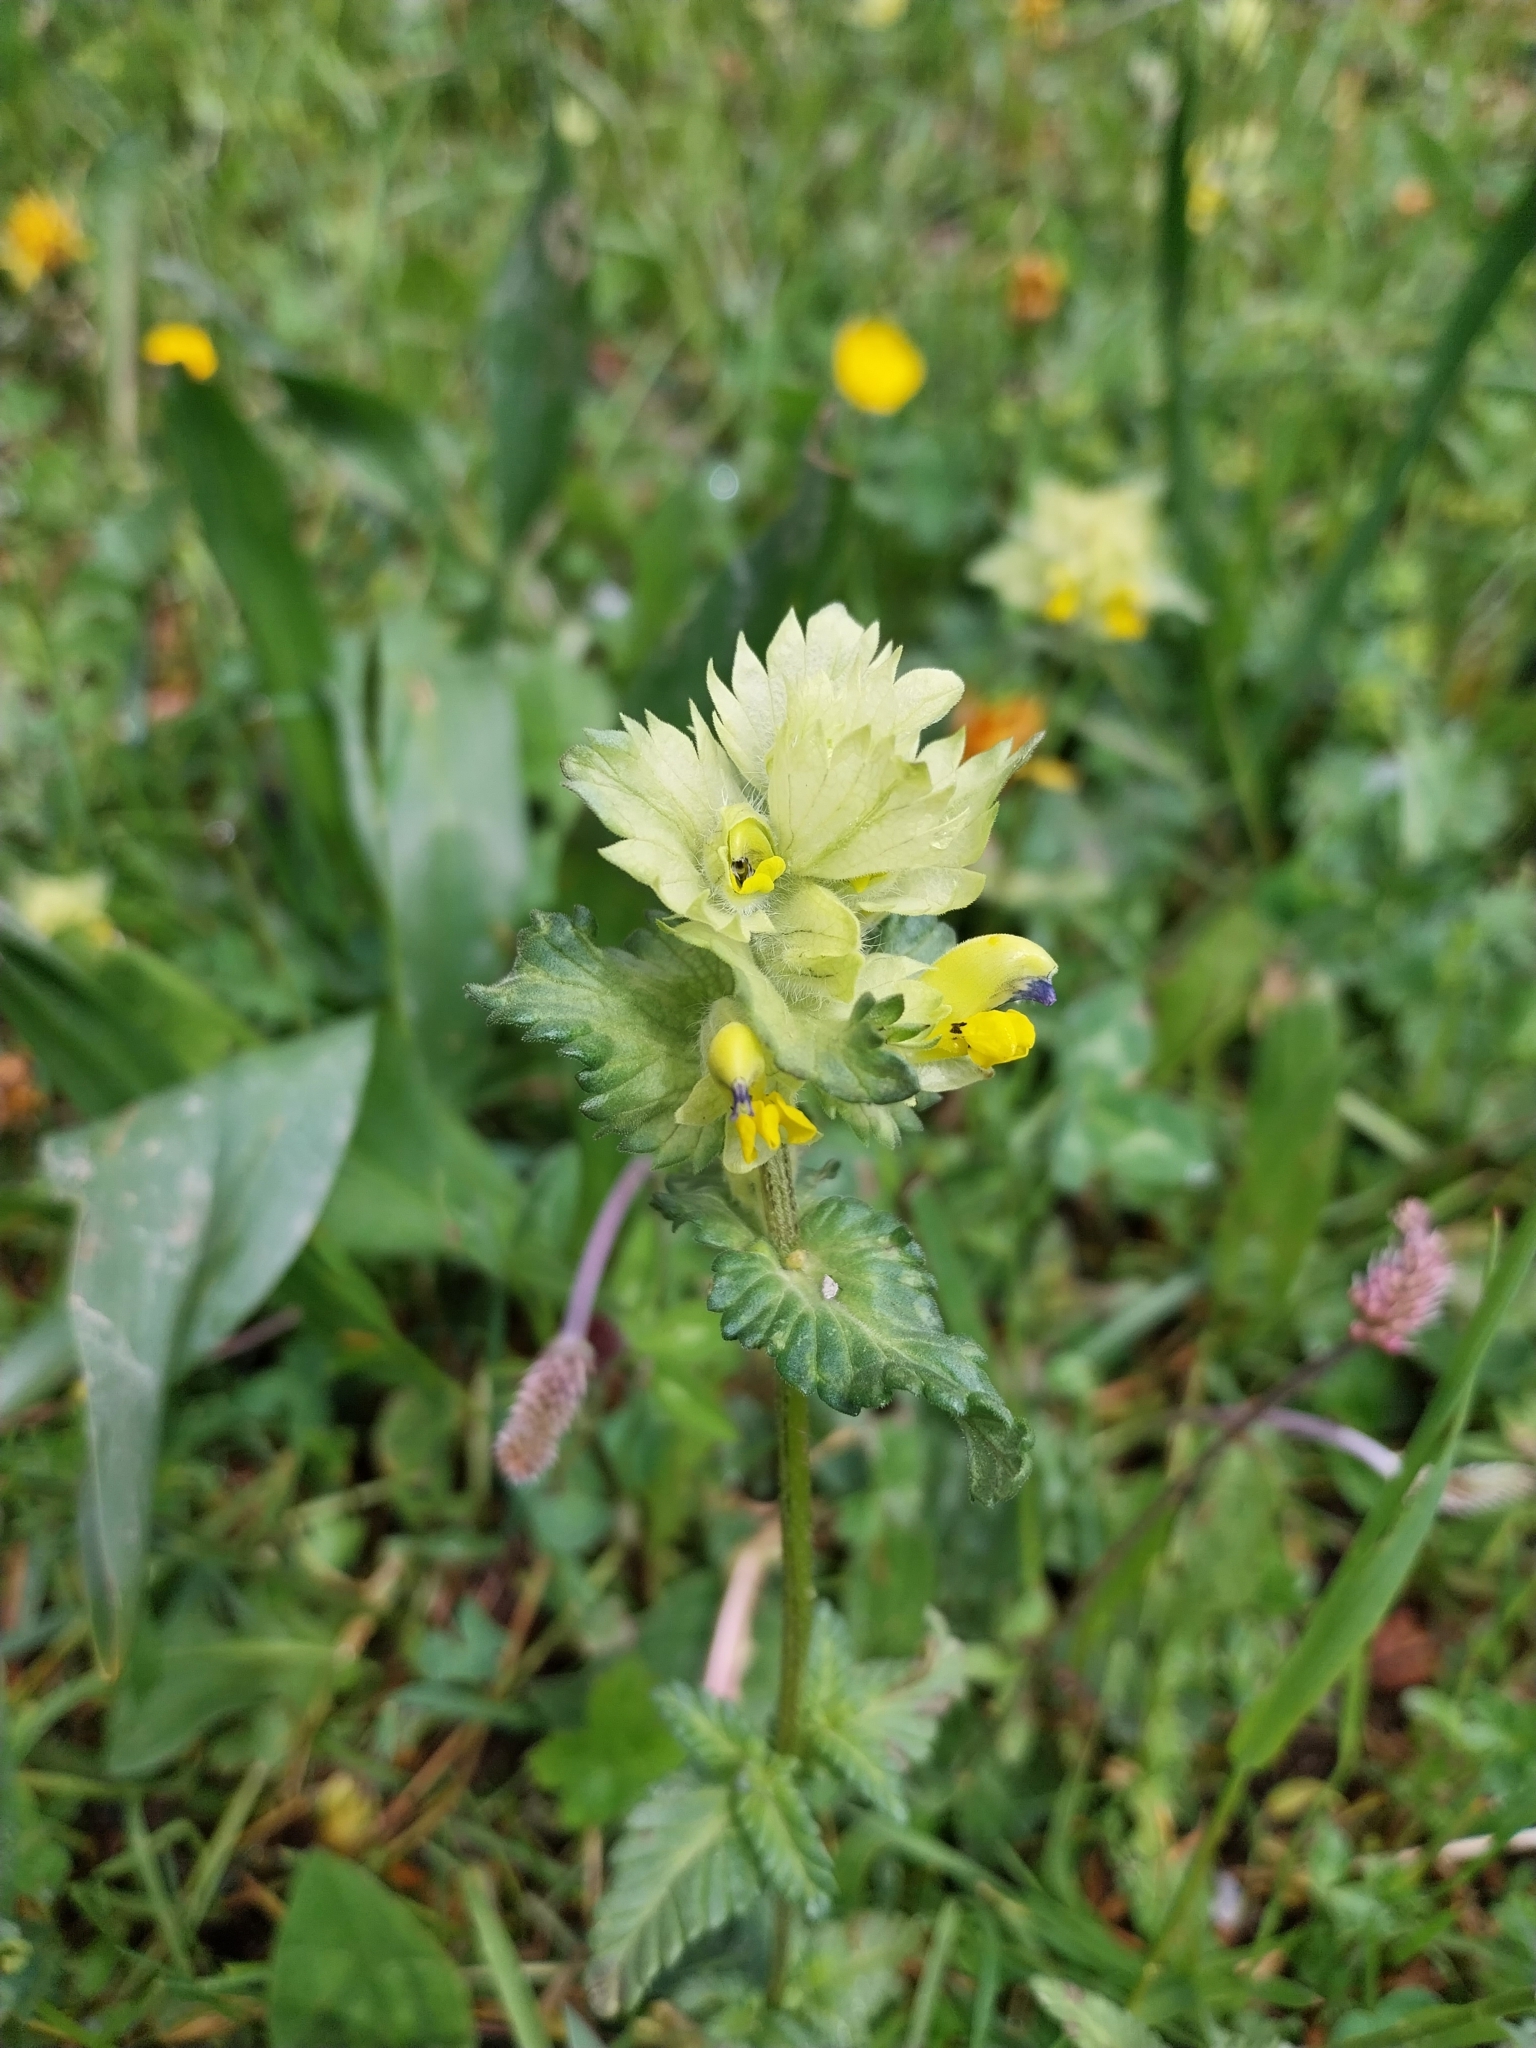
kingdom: Plantae
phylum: Tracheophyta
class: Magnoliopsida
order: Lamiales
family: Orobanchaceae
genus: Rhinanthus
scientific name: Rhinanthus alectorolophus
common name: Greater yellow-rattle
